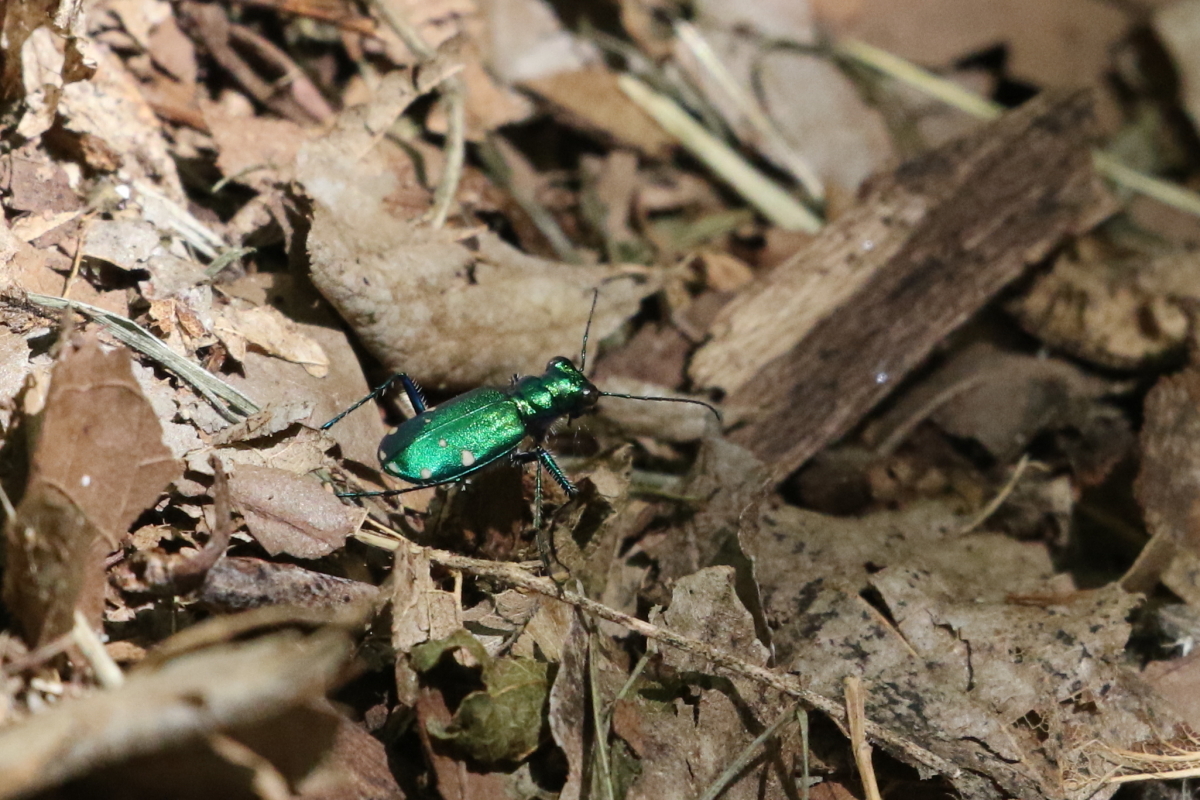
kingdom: Animalia
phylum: Arthropoda
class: Insecta
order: Coleoptera
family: Carabidae
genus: Cicindela
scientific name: Cicindela sexguttata
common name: Six-spotted tiger beetle
